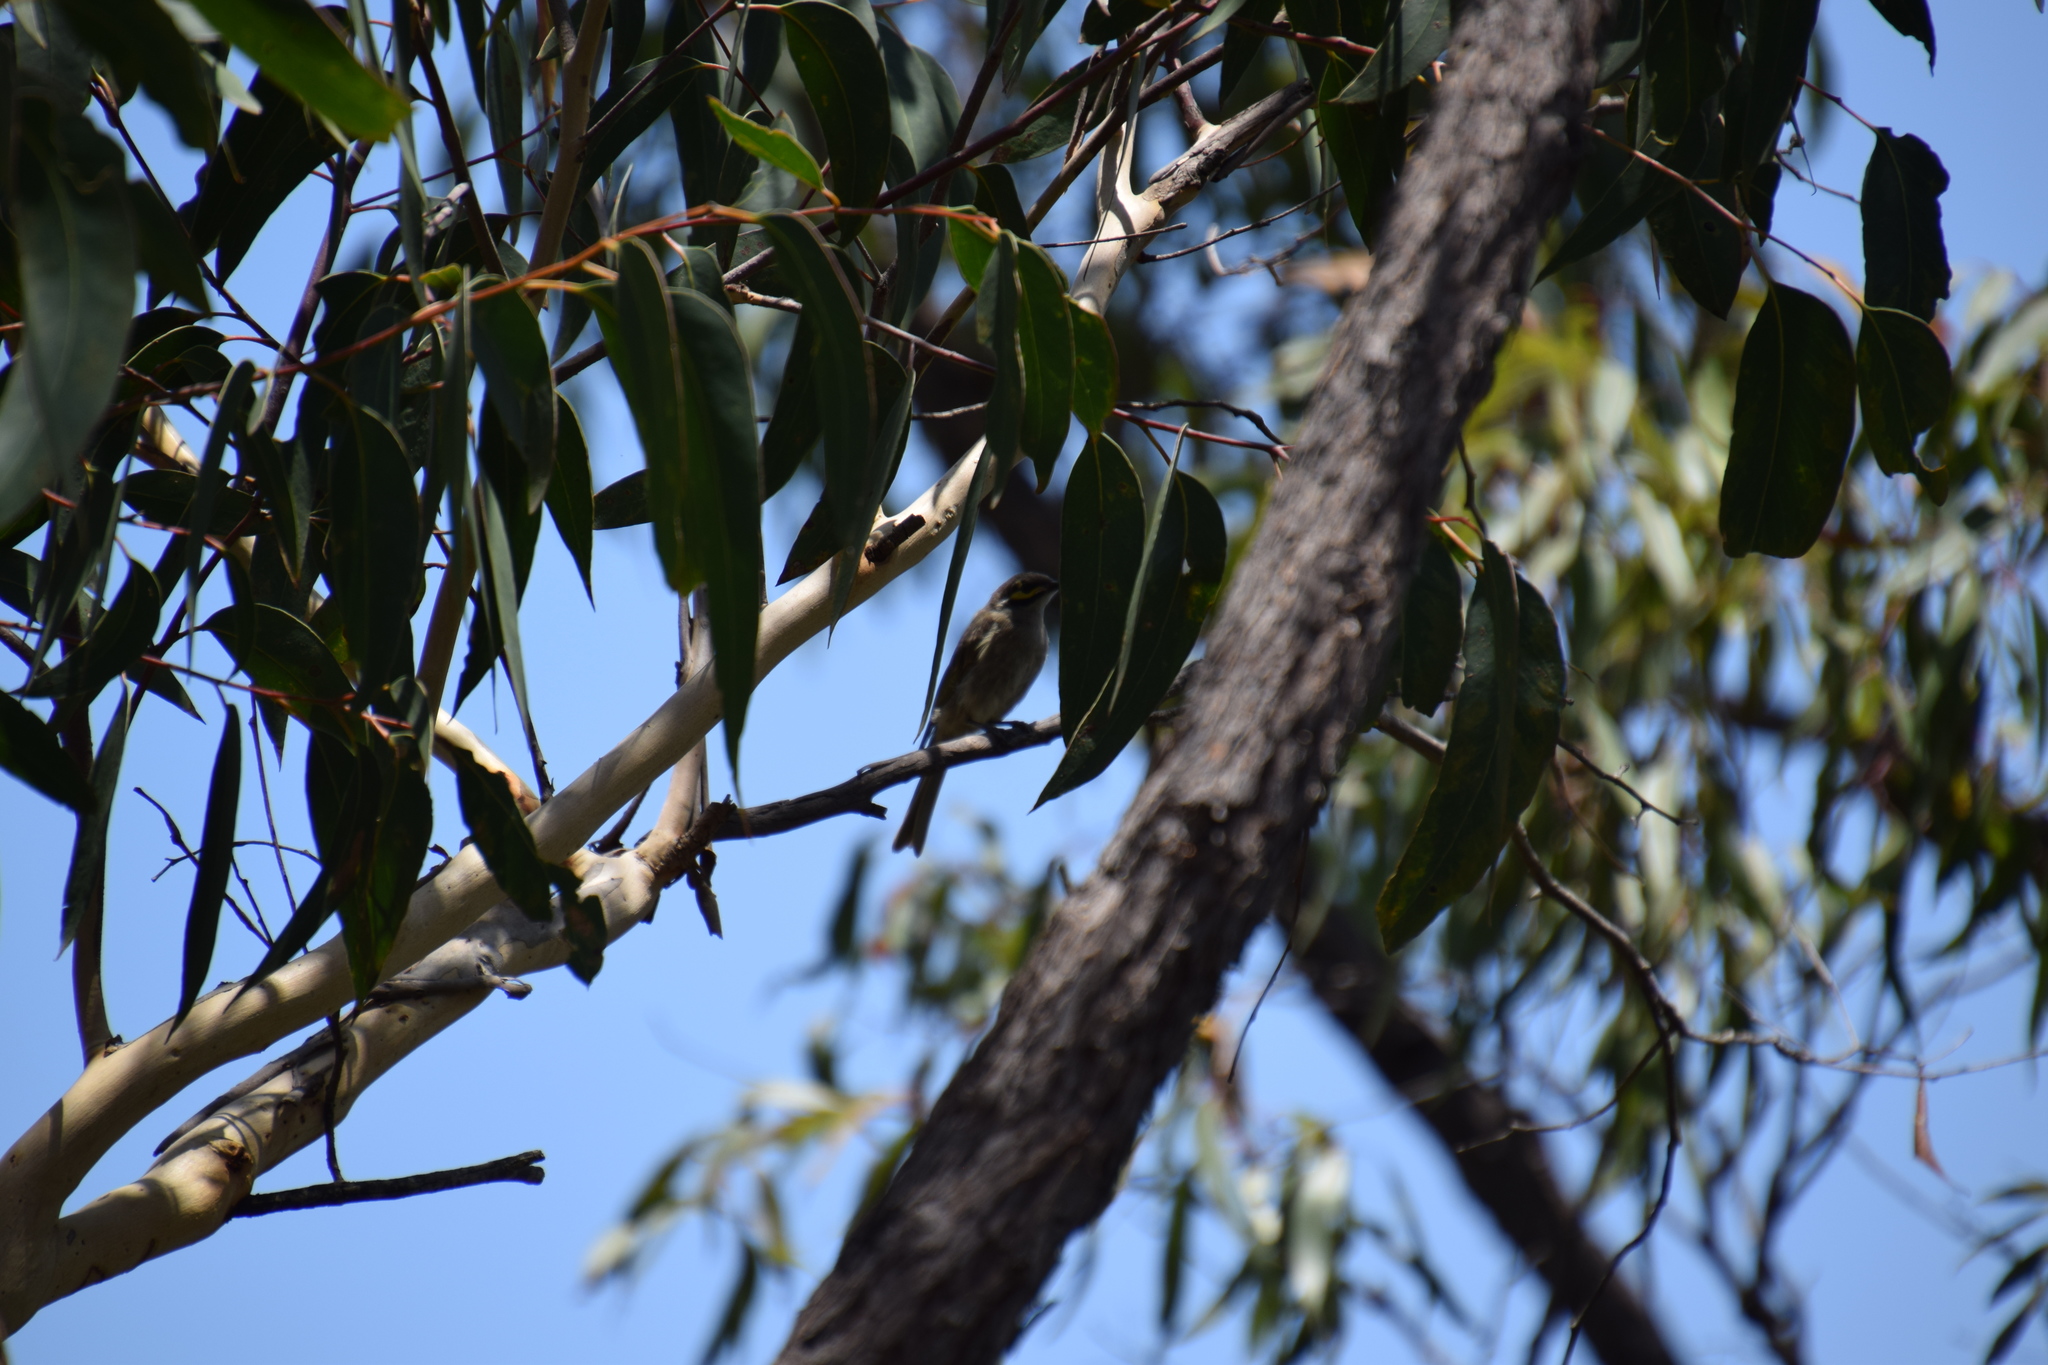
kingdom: Animalia
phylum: Chordata
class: Aves
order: Passeriformes
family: Meliphagidae
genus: Caligavis
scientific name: Caligavis chrysops
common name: Yellow-faced honeyeater
